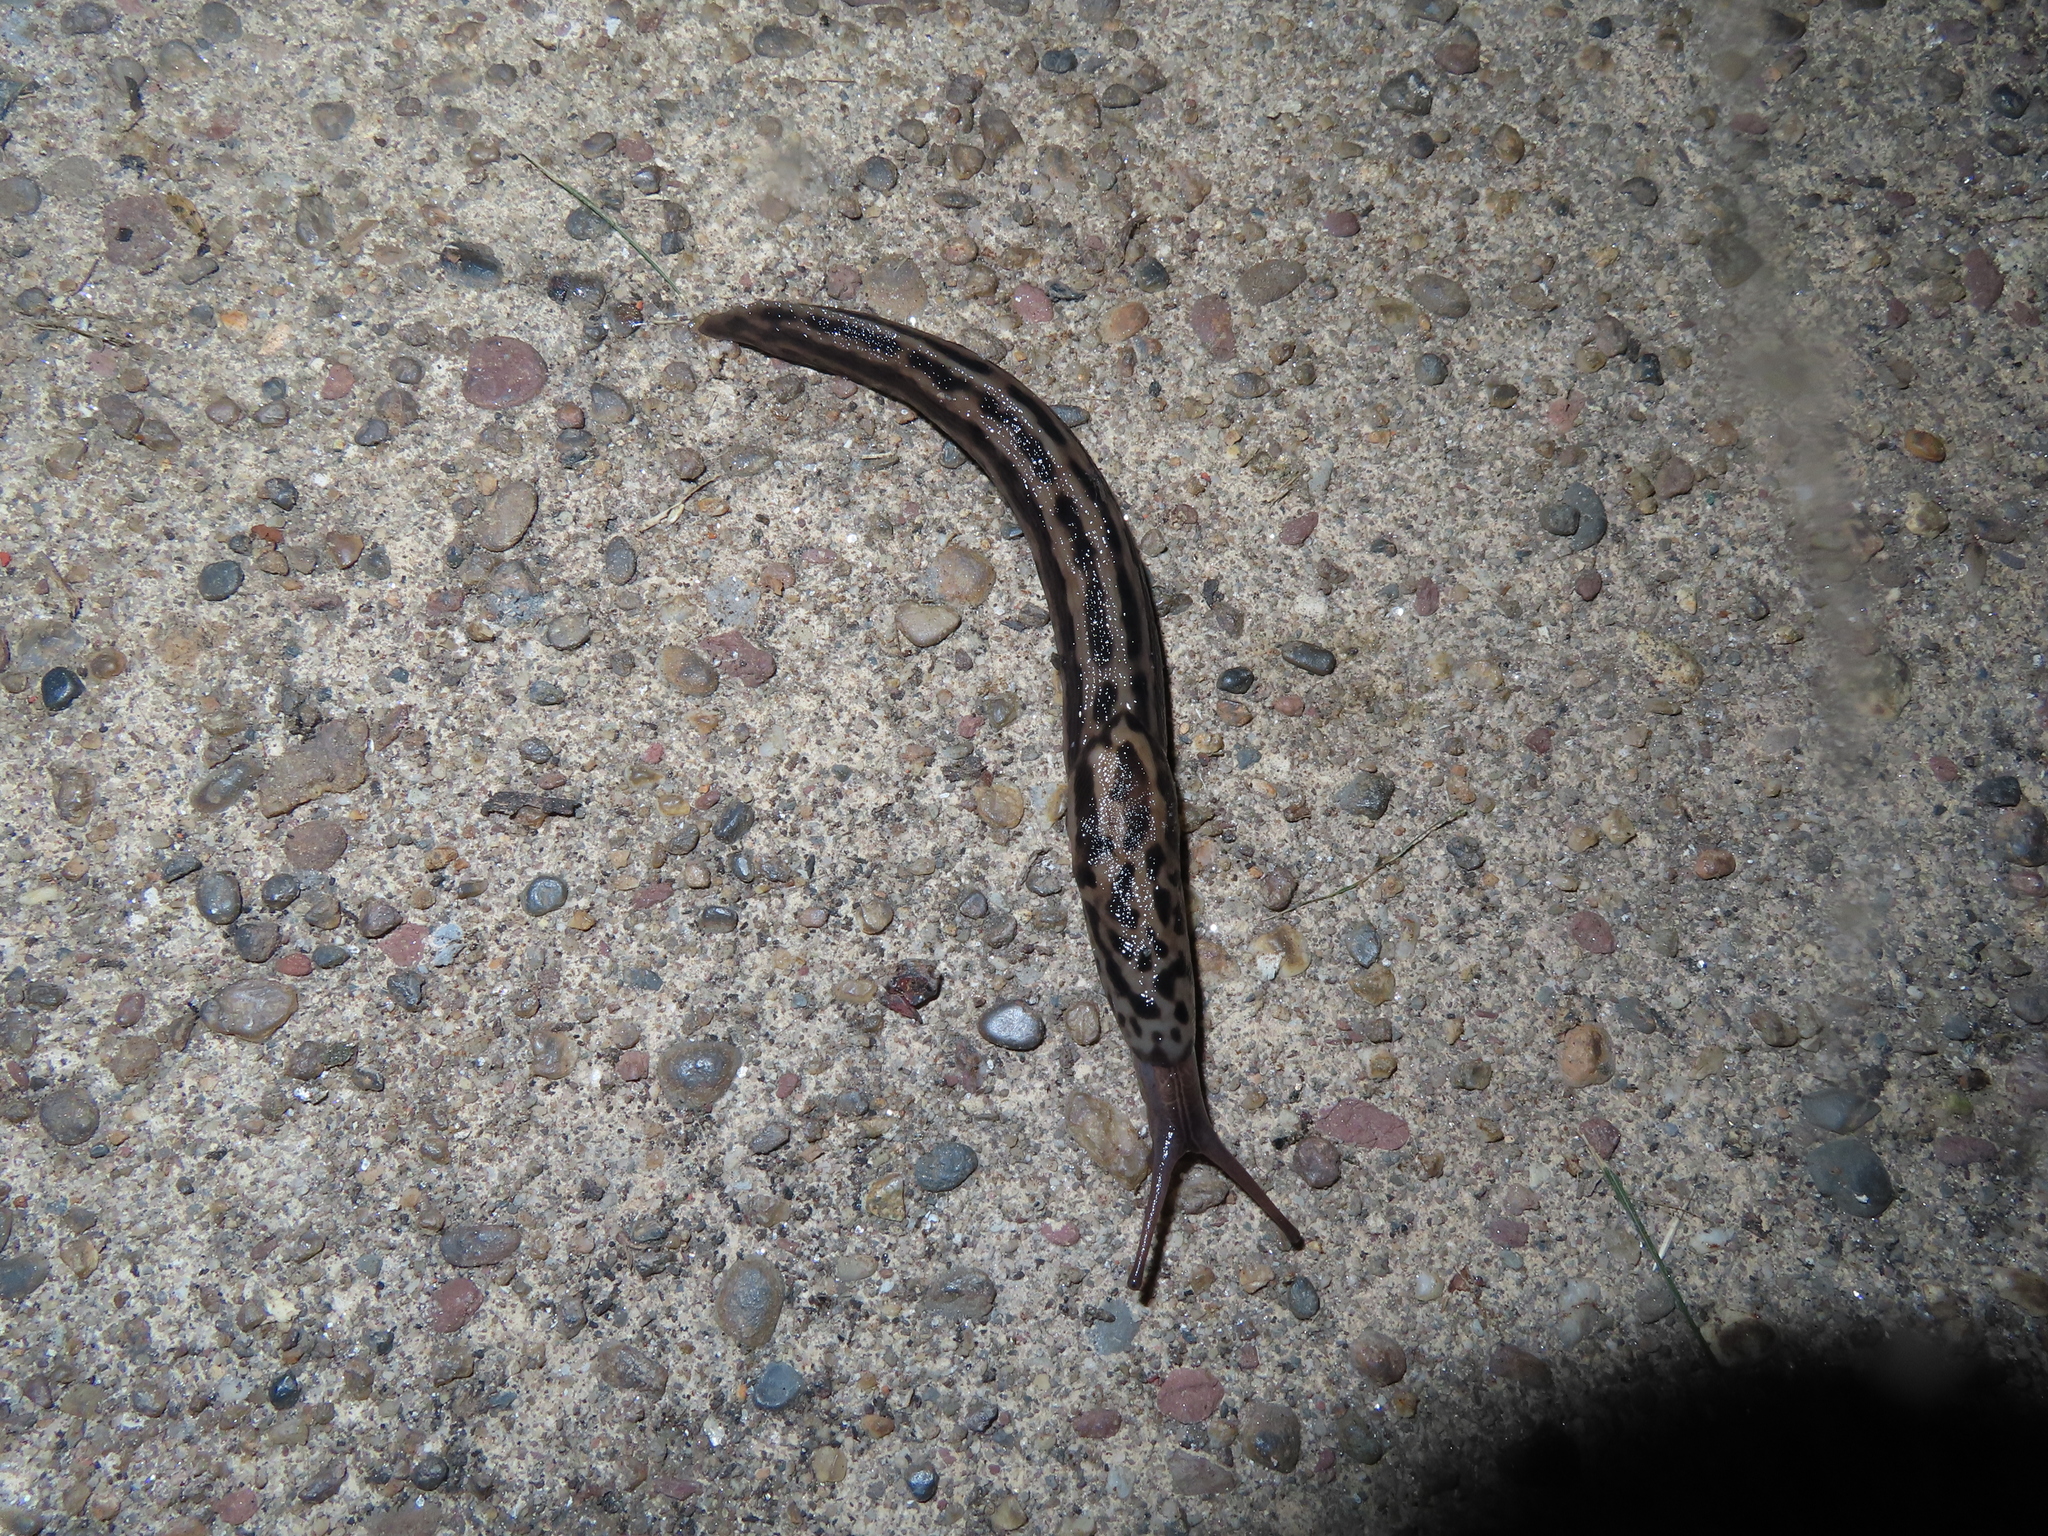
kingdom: Animalia
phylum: Mollusca
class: Gastropoda
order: Stylommatophora
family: Limacidae
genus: Limax
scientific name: Limax maximus
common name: Great grey slug
